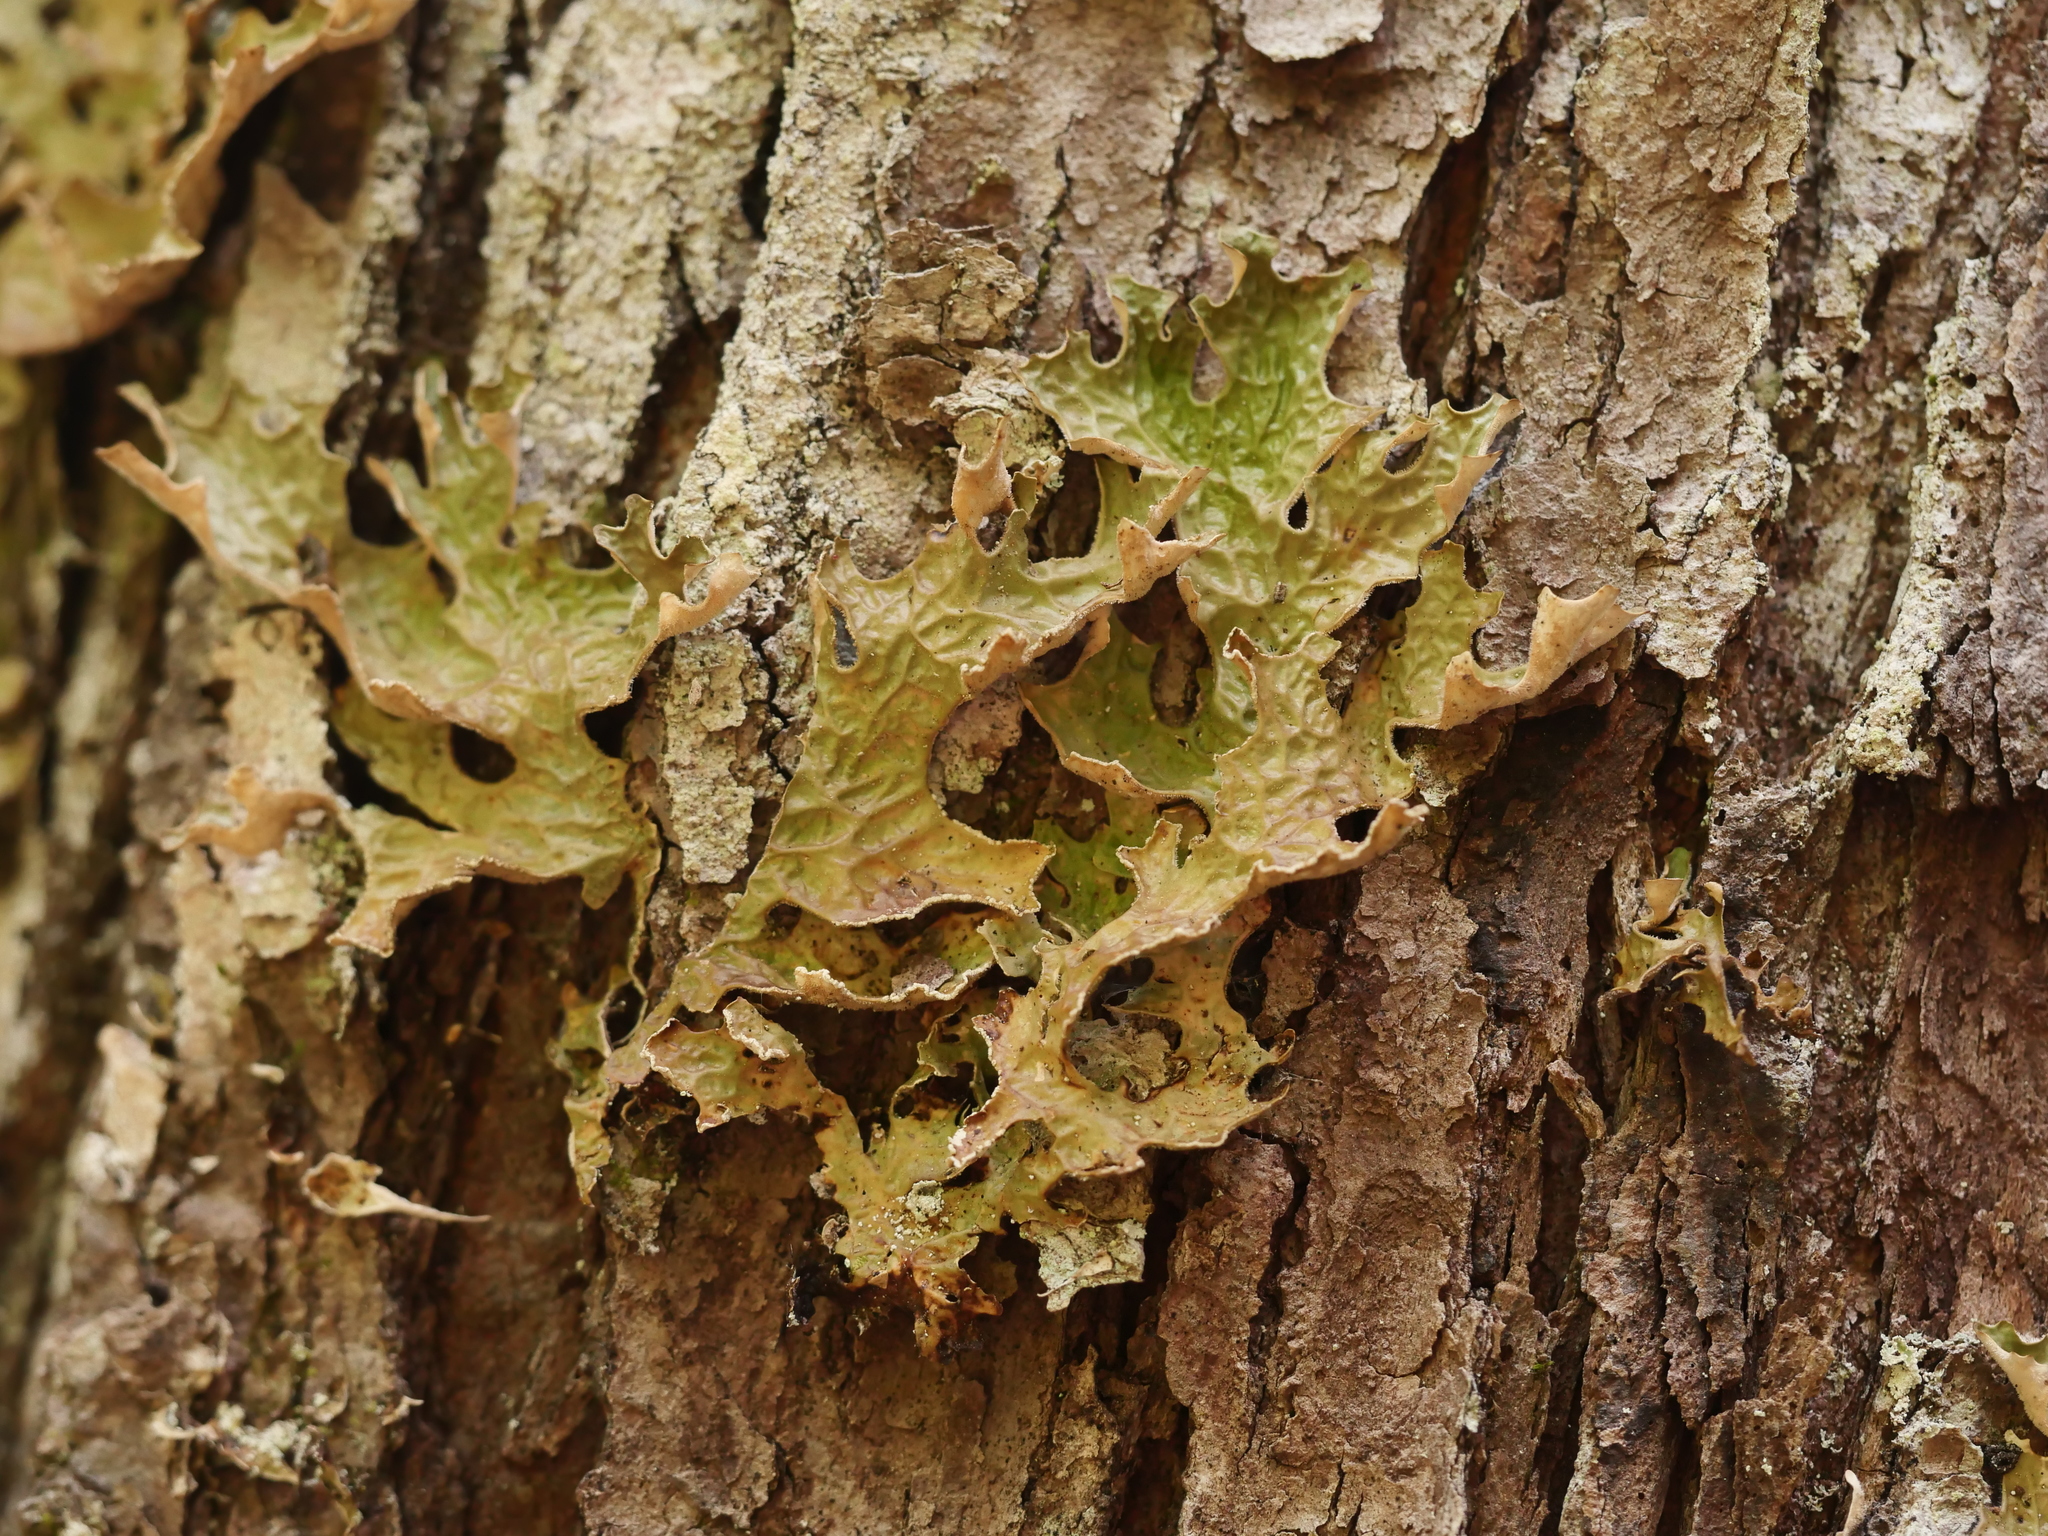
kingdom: Fungi
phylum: Ascomycota
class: Lecanoromycetes
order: Peltigerales
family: Lobariaceae
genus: Lobaria
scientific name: Lobaria pulmonaria
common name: Lungwort
